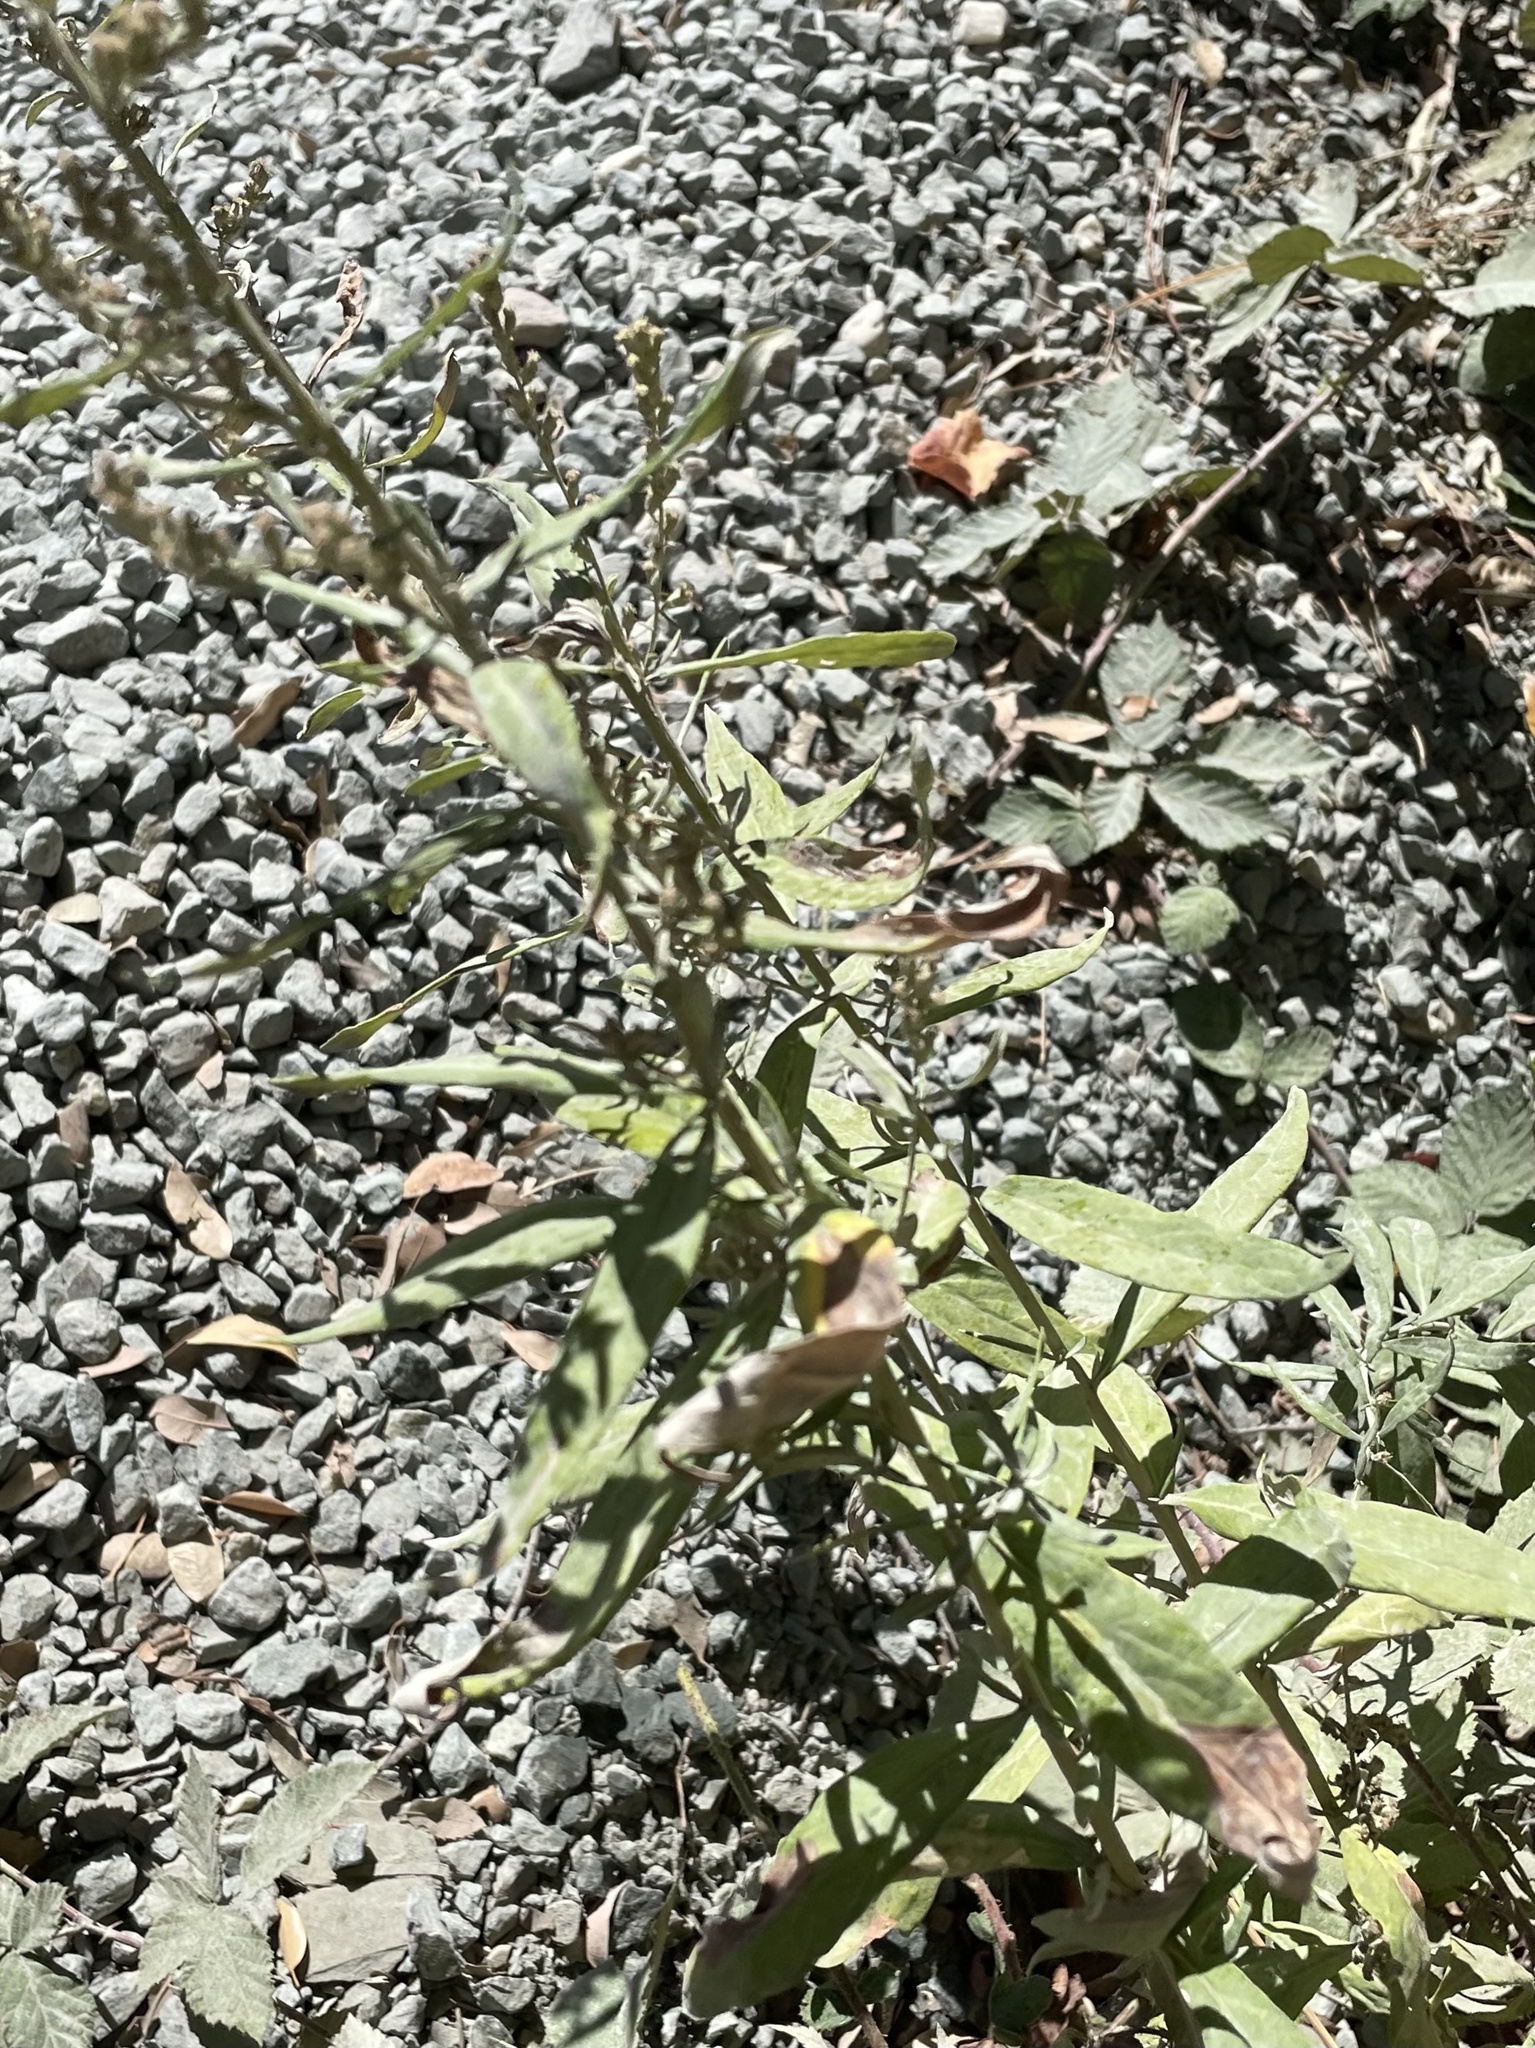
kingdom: Plantae
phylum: Tracheophyta
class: Magnoliopsida
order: Asterales
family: Asteraceae
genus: Artemisia
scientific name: Artemisia douglasiana
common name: Northwest mugwort
